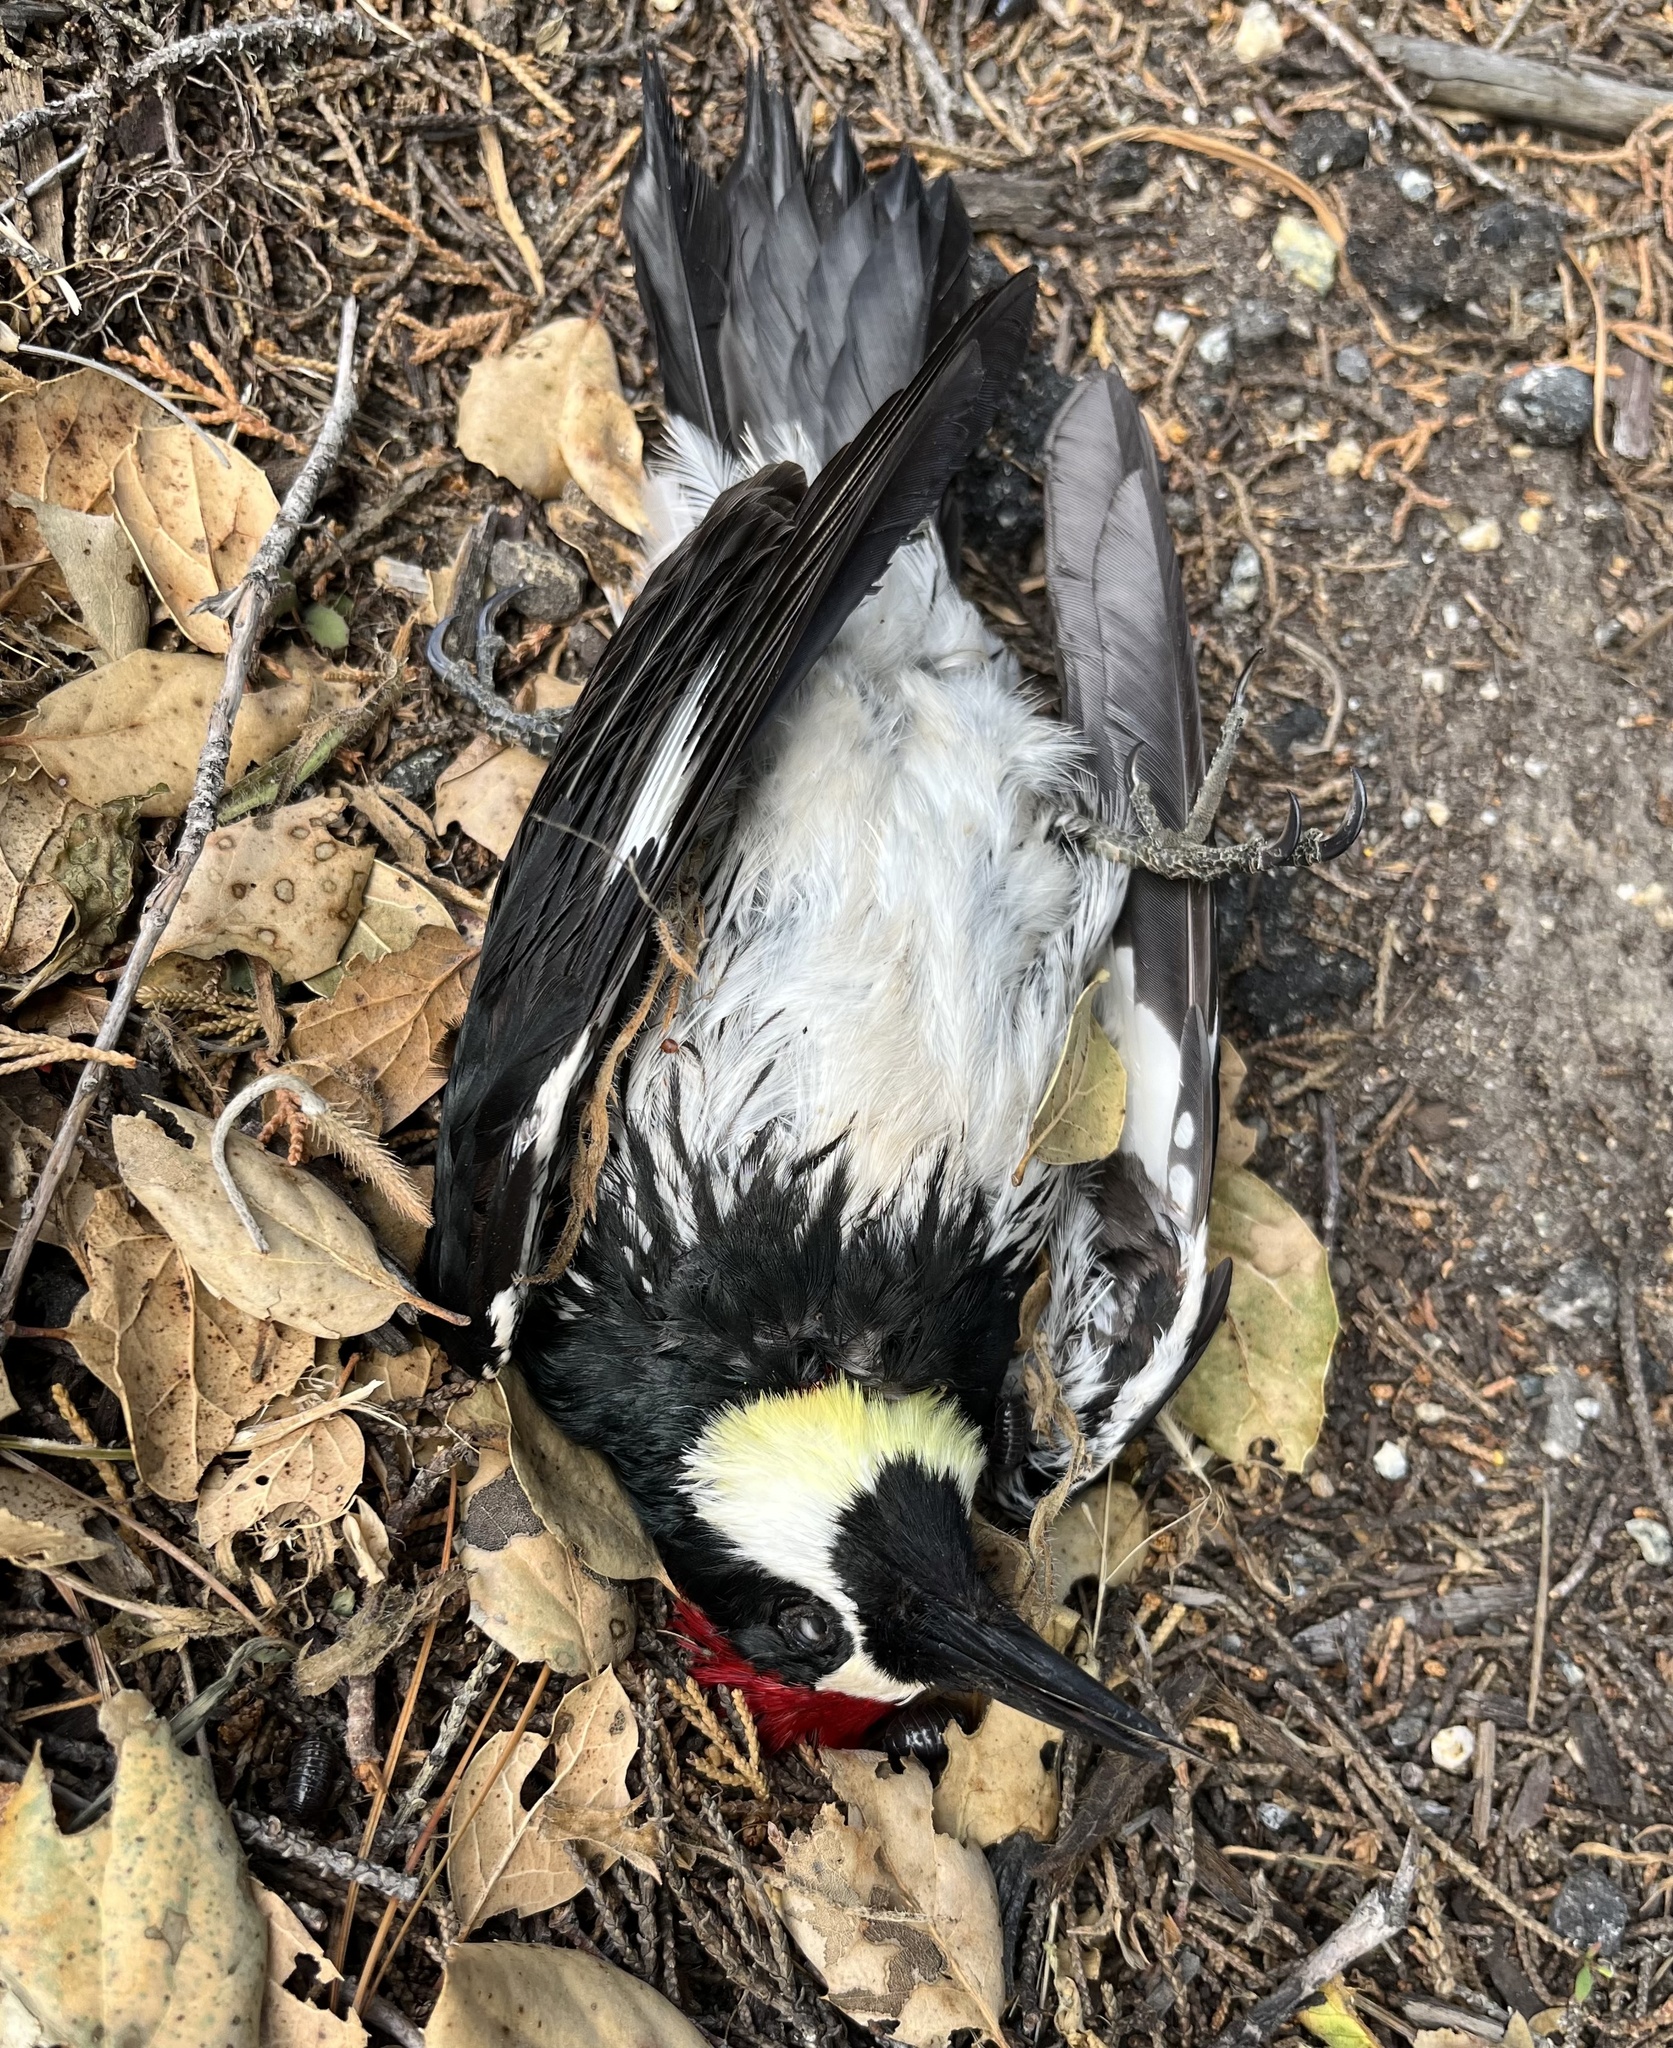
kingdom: Animalia
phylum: Chordata
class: Aves
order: Piciformes
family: Picidae
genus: Melanerpes
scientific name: Melanerpes formicivorus
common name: Acorn woodpecker
